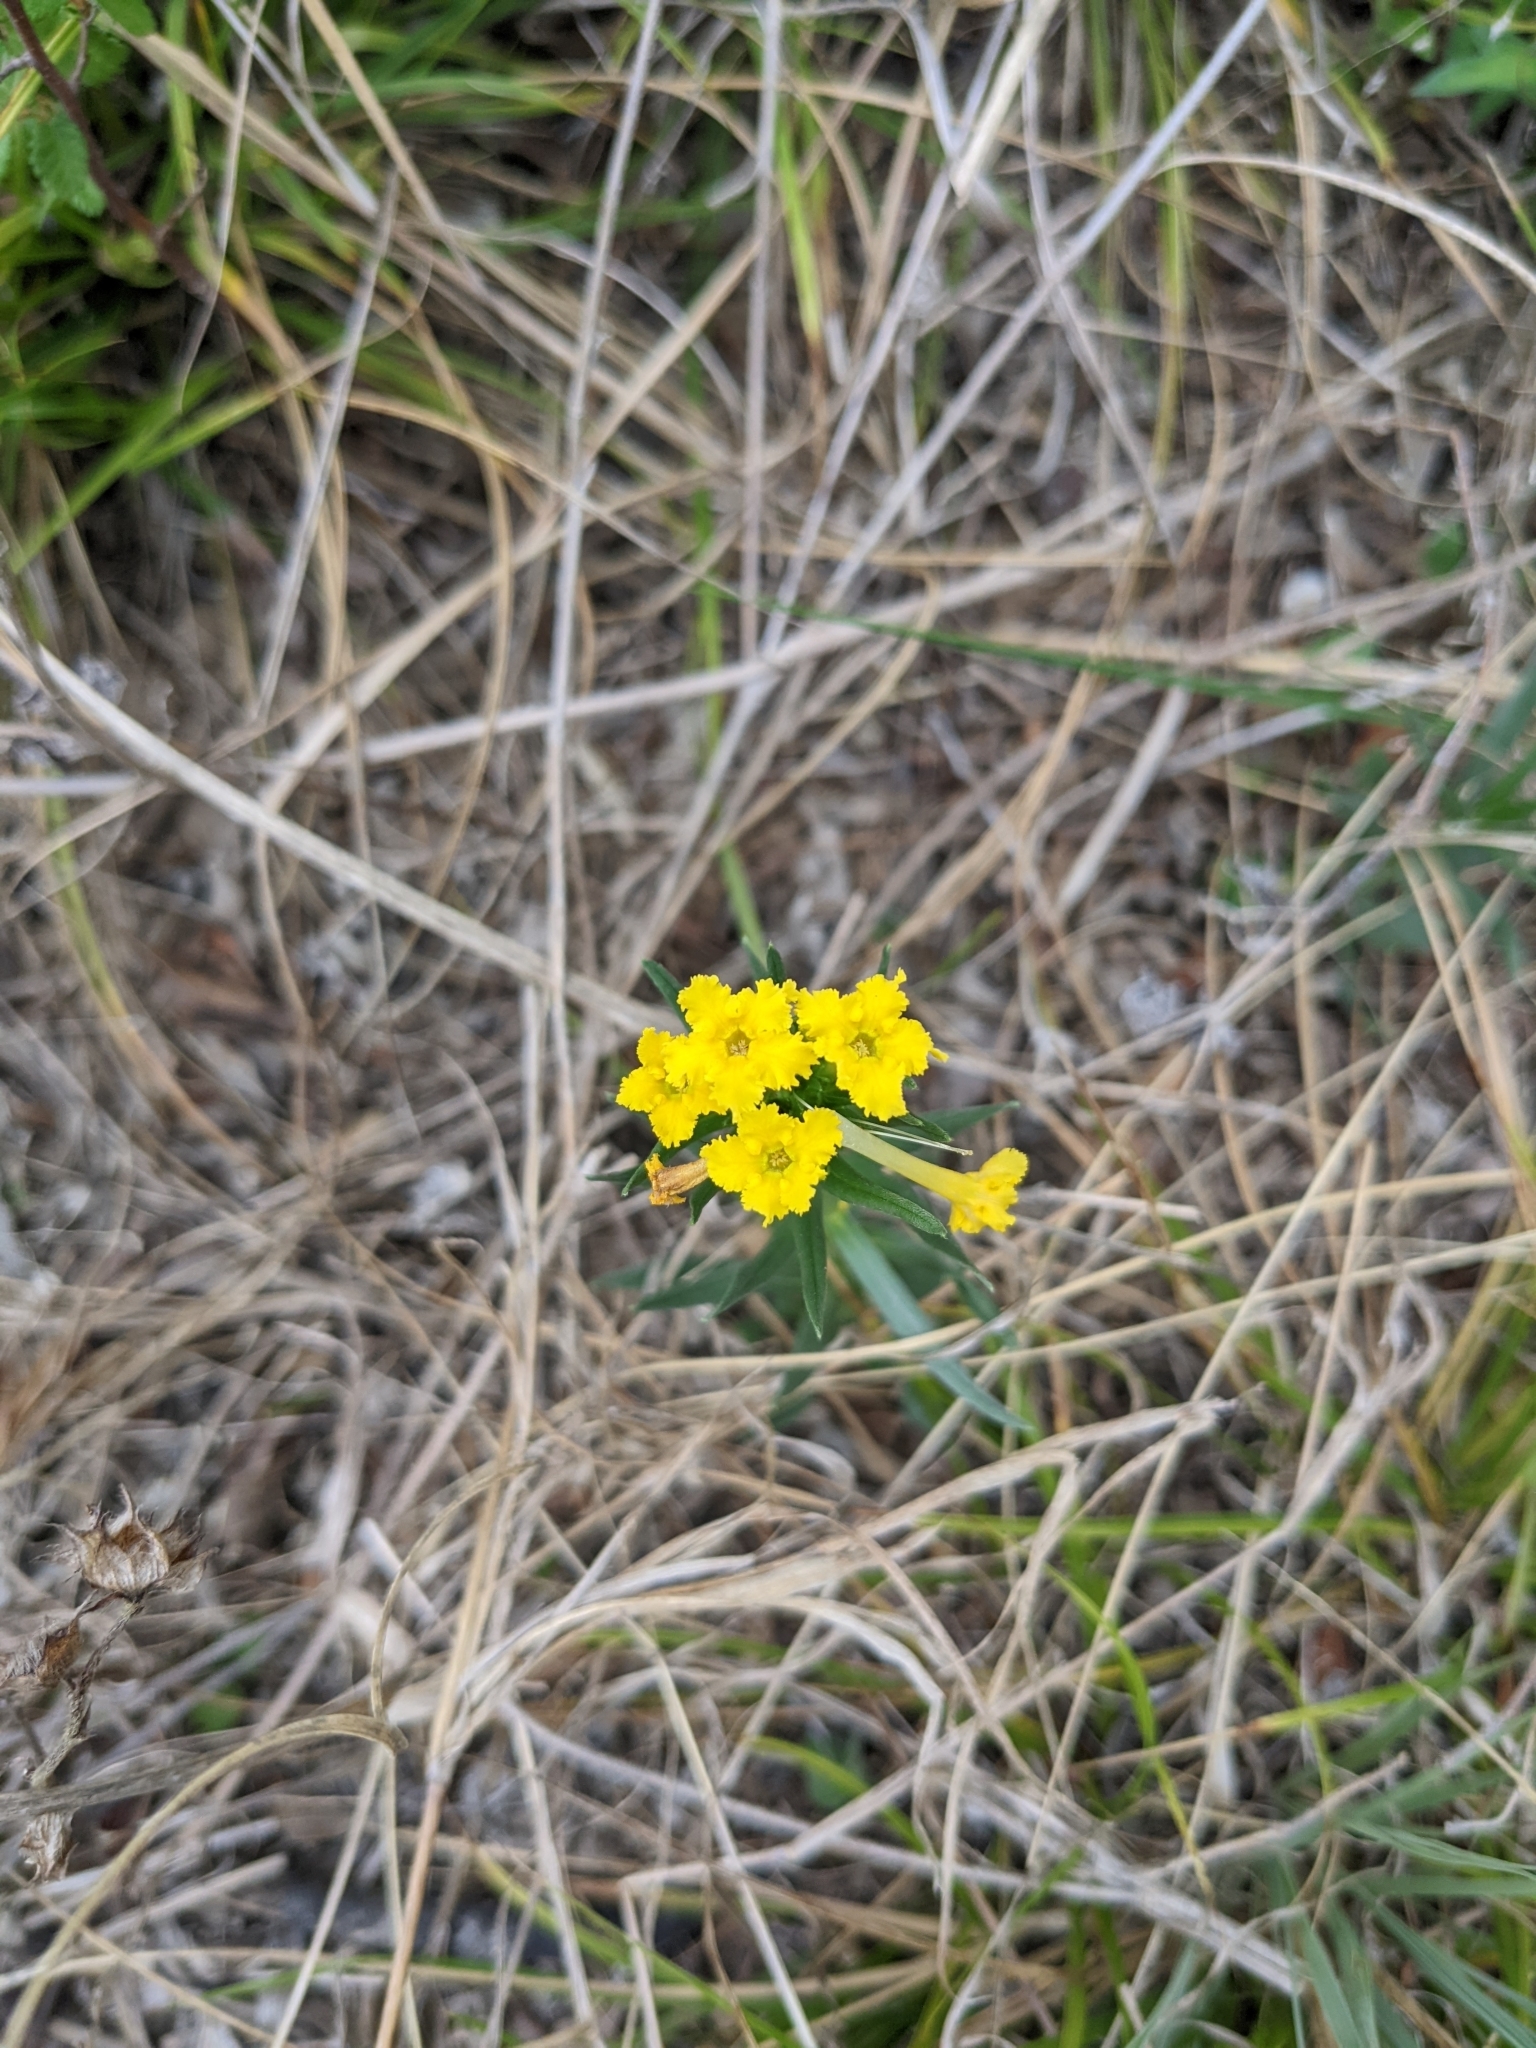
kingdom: Plantae
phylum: Tracheophyta
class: Magnoliopsida
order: Boraginales
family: Boraginaceae
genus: Lithospermum
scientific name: Lithospermum incisum
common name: Fringed gromwell
